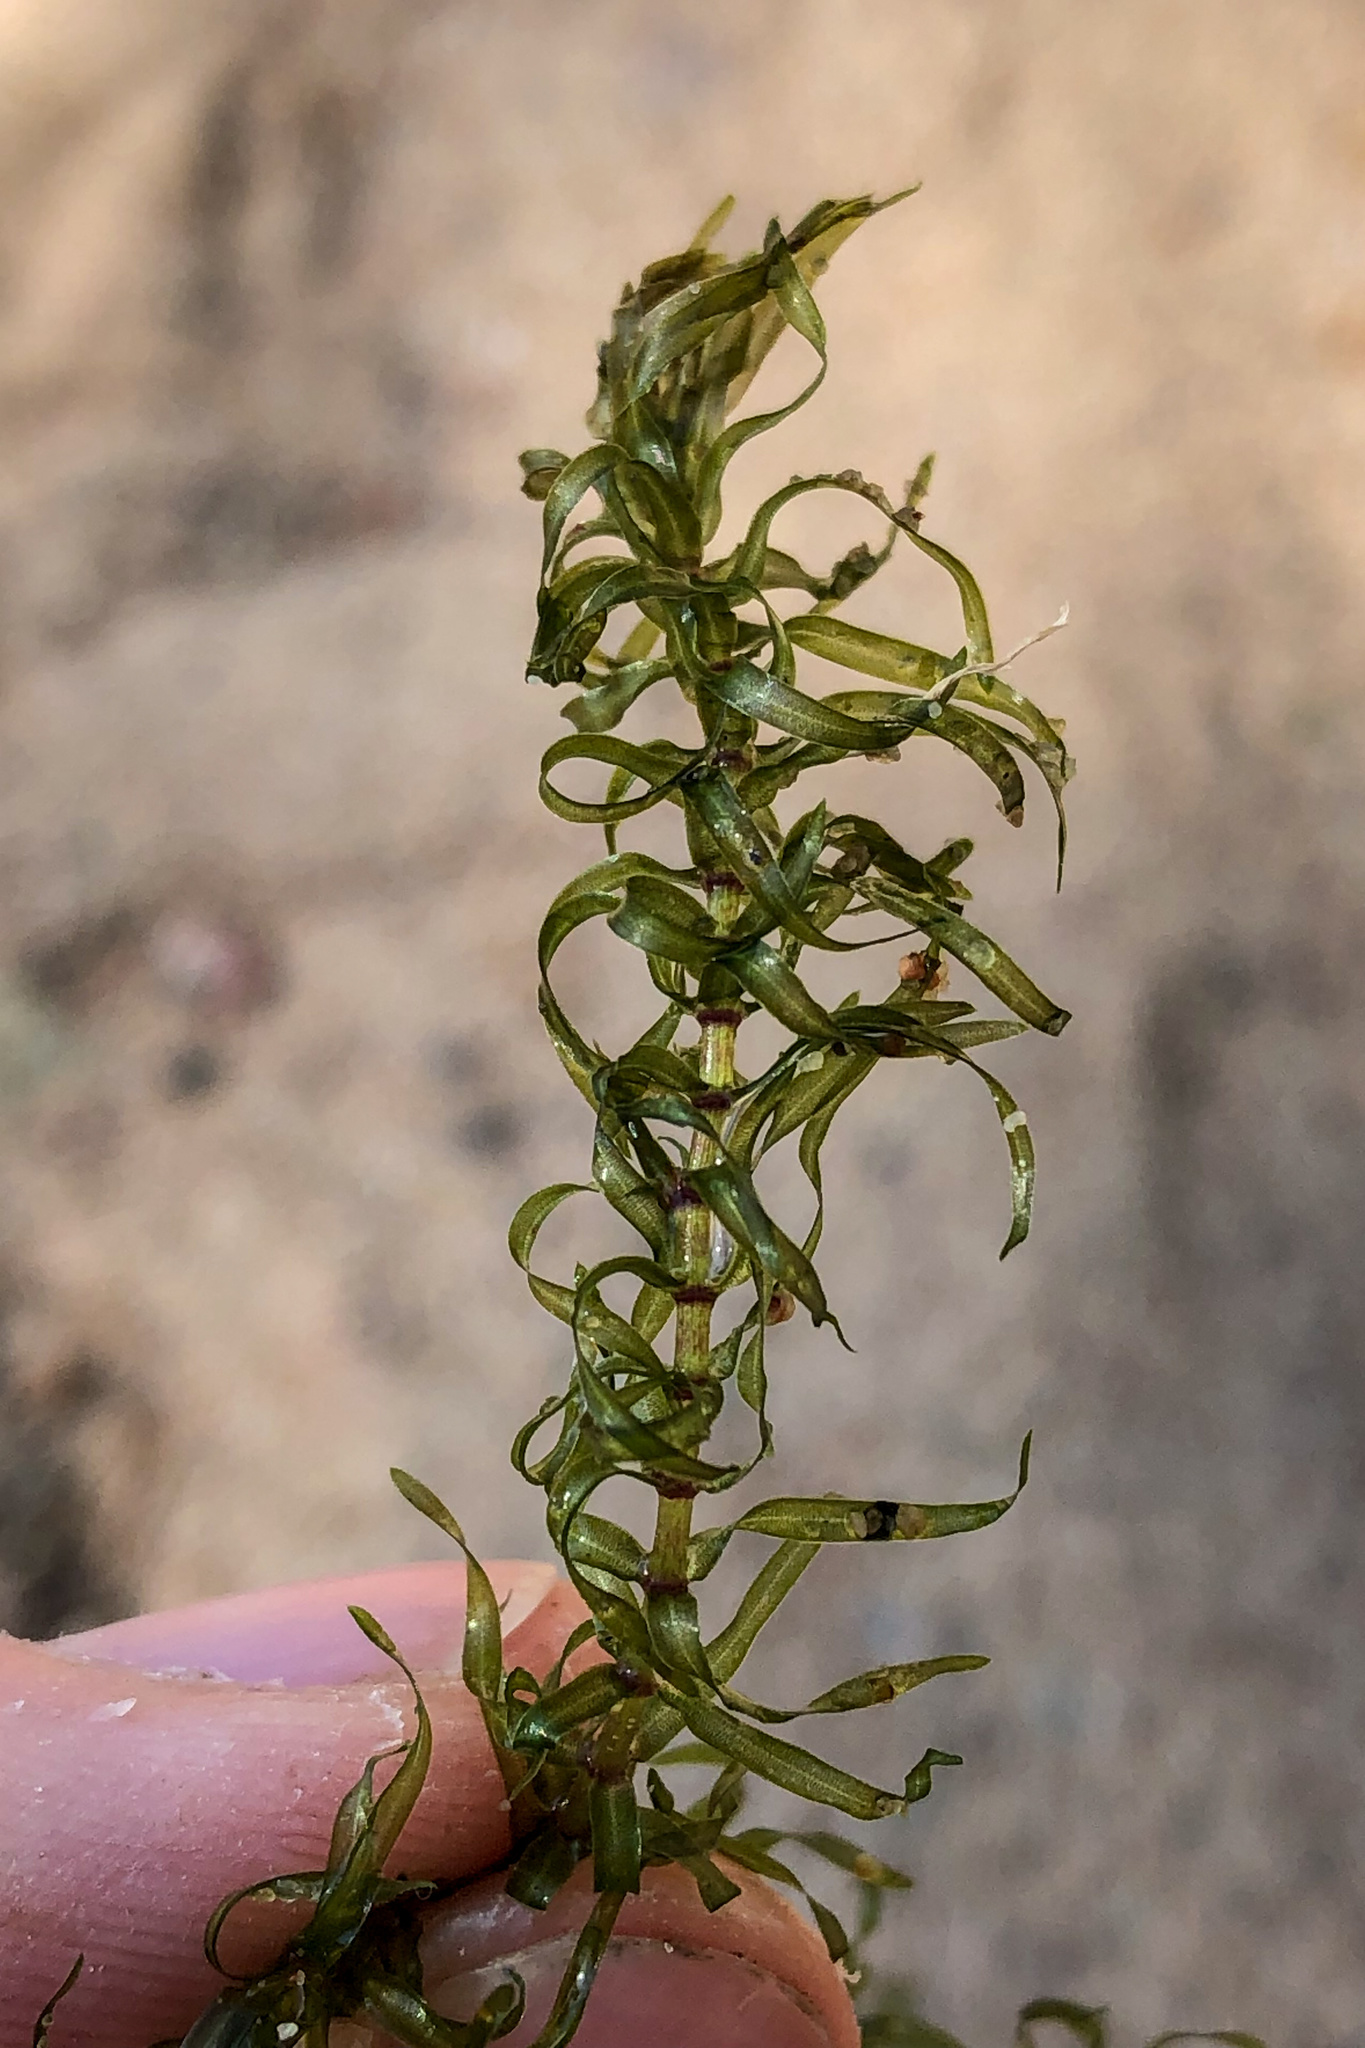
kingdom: Plantae
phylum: Tracheophyta
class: Liliopsida
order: Alismatales
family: Hydrocharitaceae
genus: Elodea
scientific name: Elodea nuttallii
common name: Nuttall's waterweed
